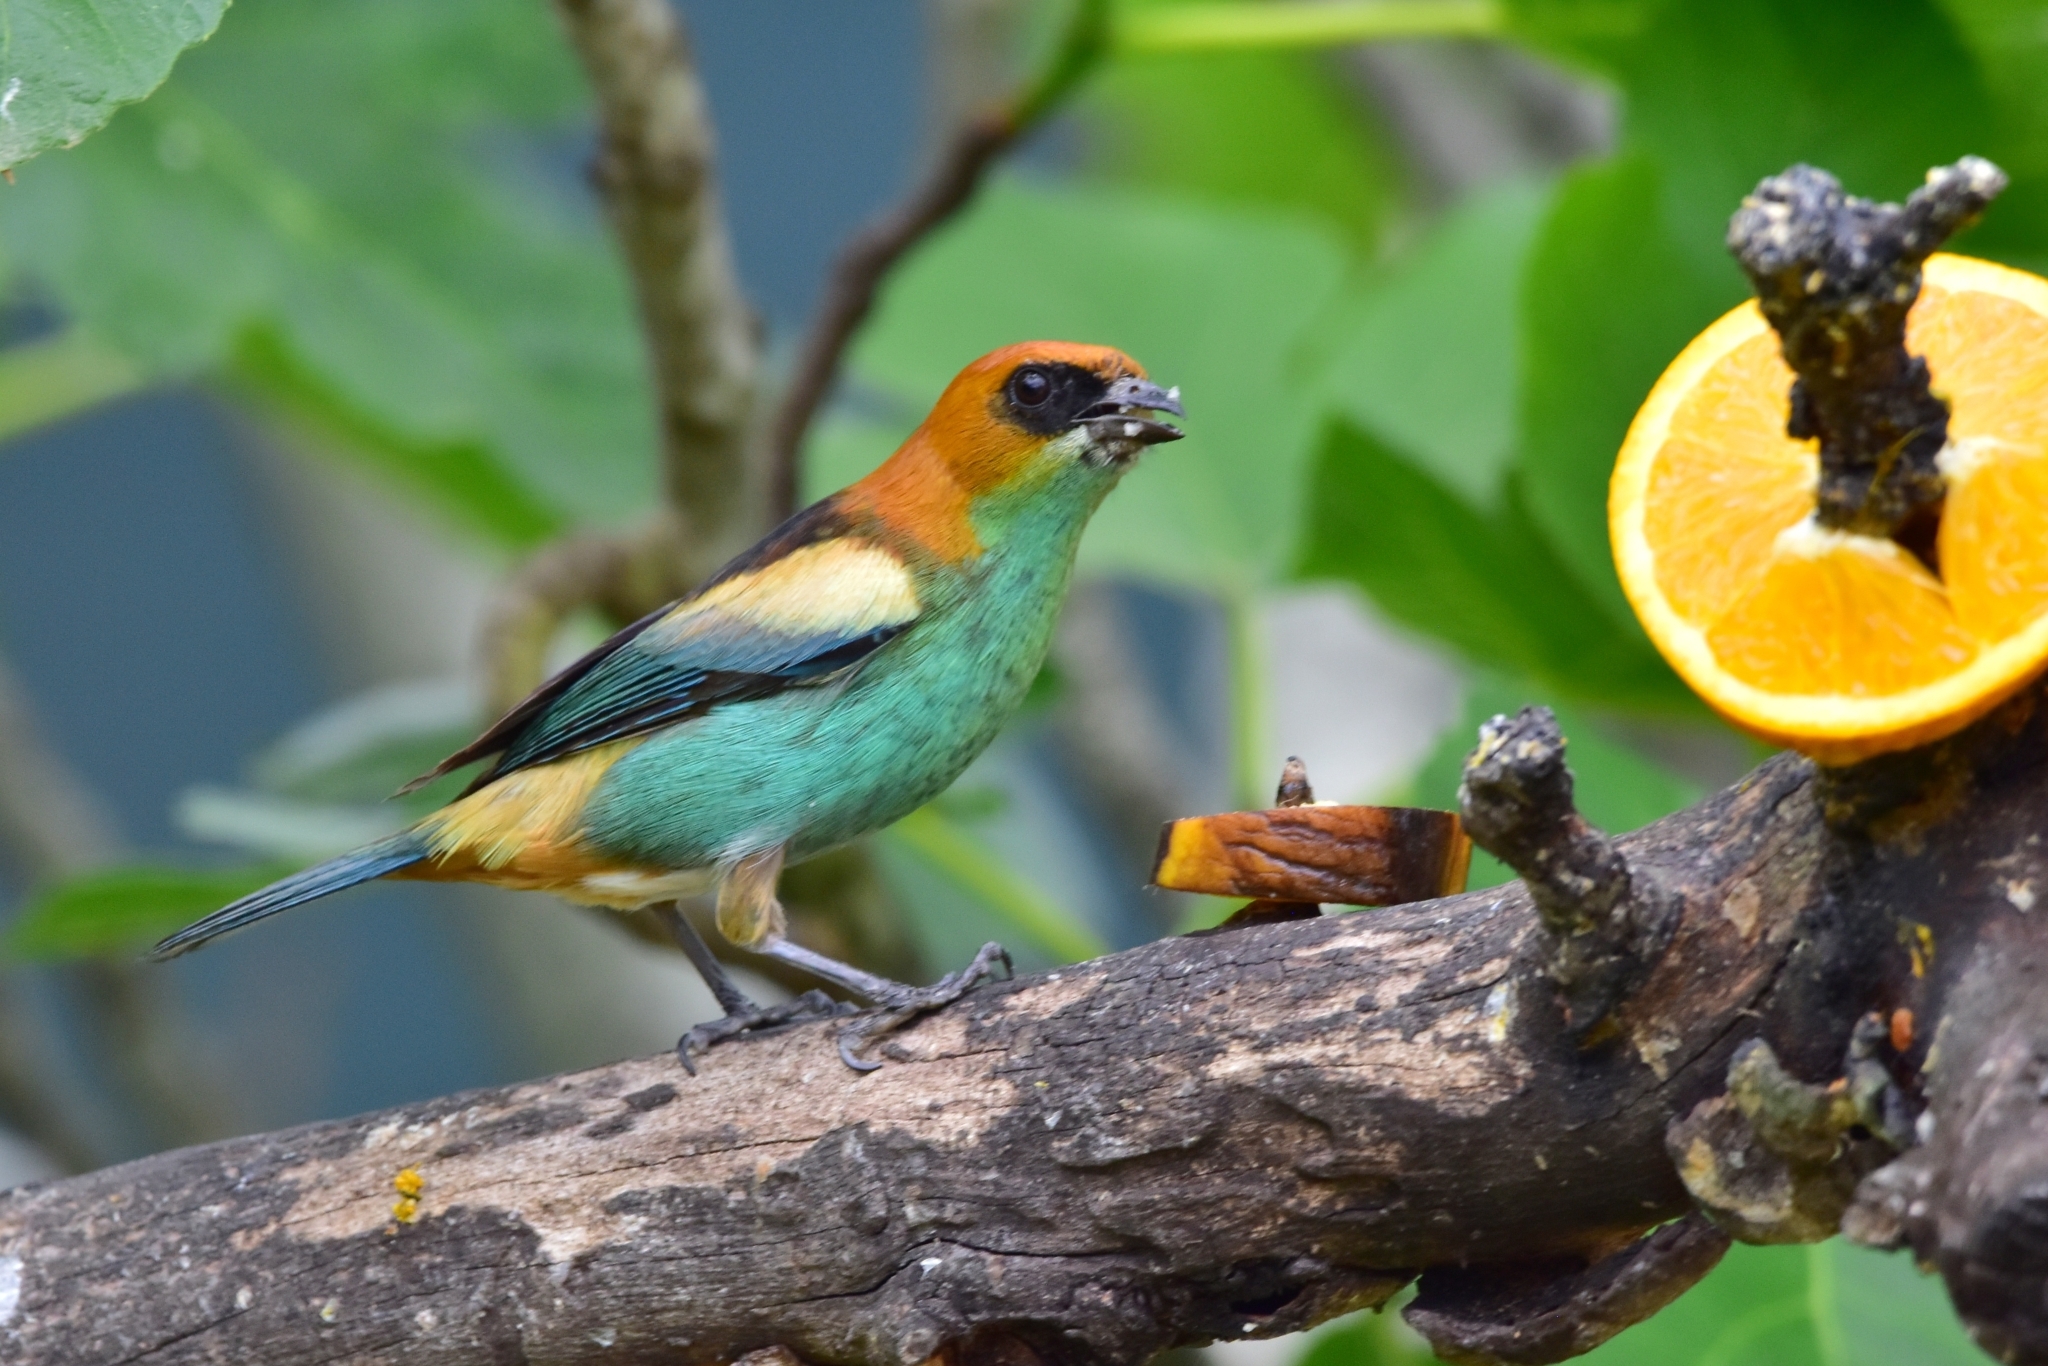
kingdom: Animalia
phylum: Chordata
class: Aves
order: Passeriformes
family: Thraupidae
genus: Stilpnia
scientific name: Stilpnia peruviana
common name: Black-backed tanager
